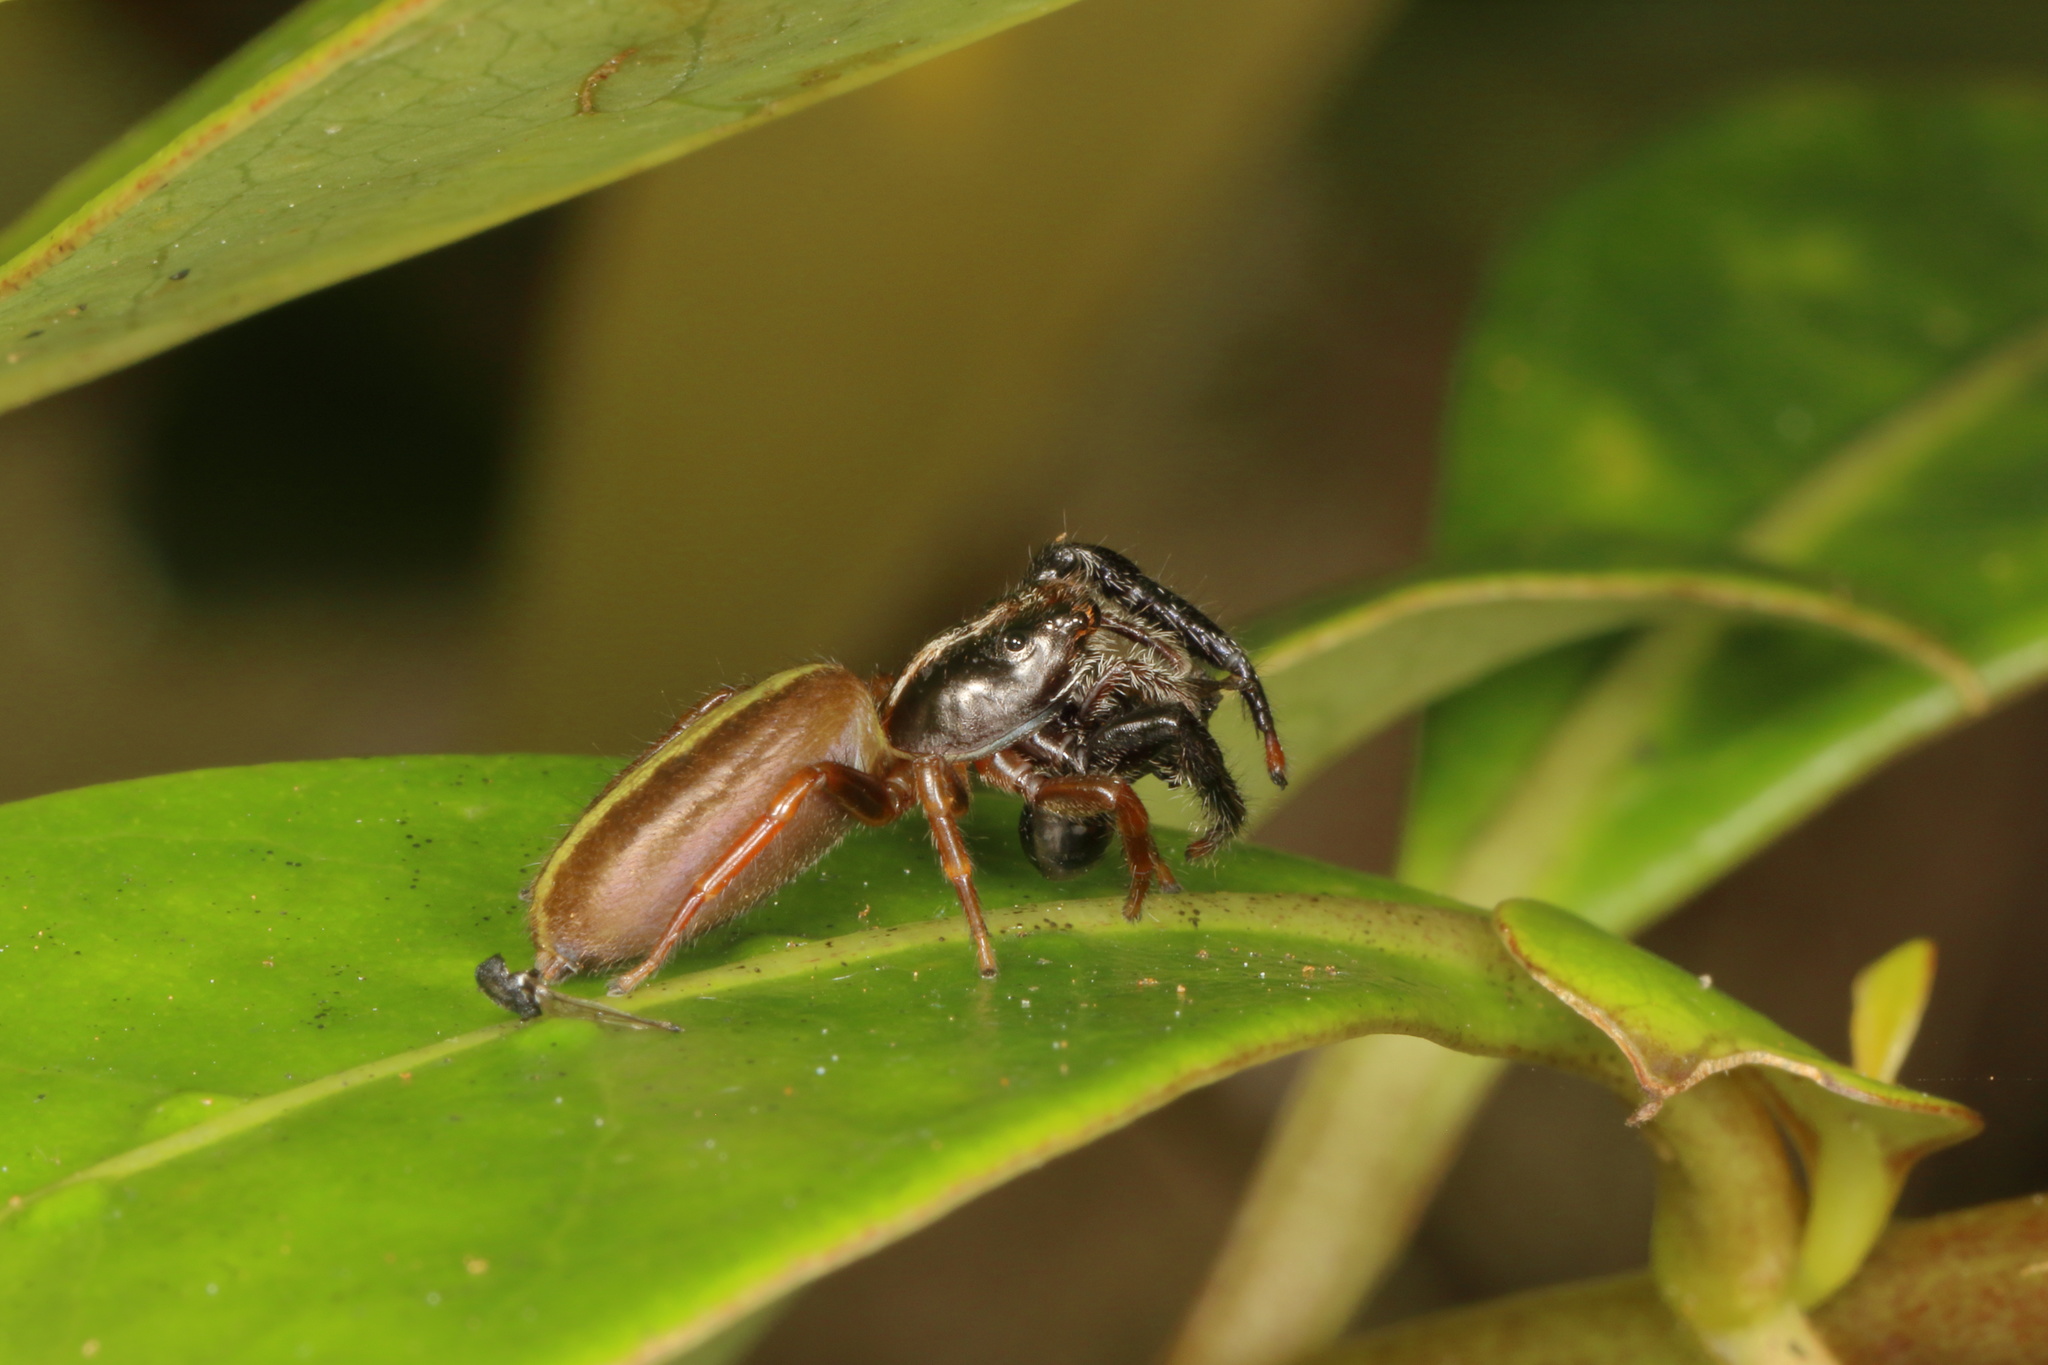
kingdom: Animalia
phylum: Arthropoda
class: Arachnida
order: Araneae
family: Salticidae
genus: Trite
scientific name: Trite planiceps
